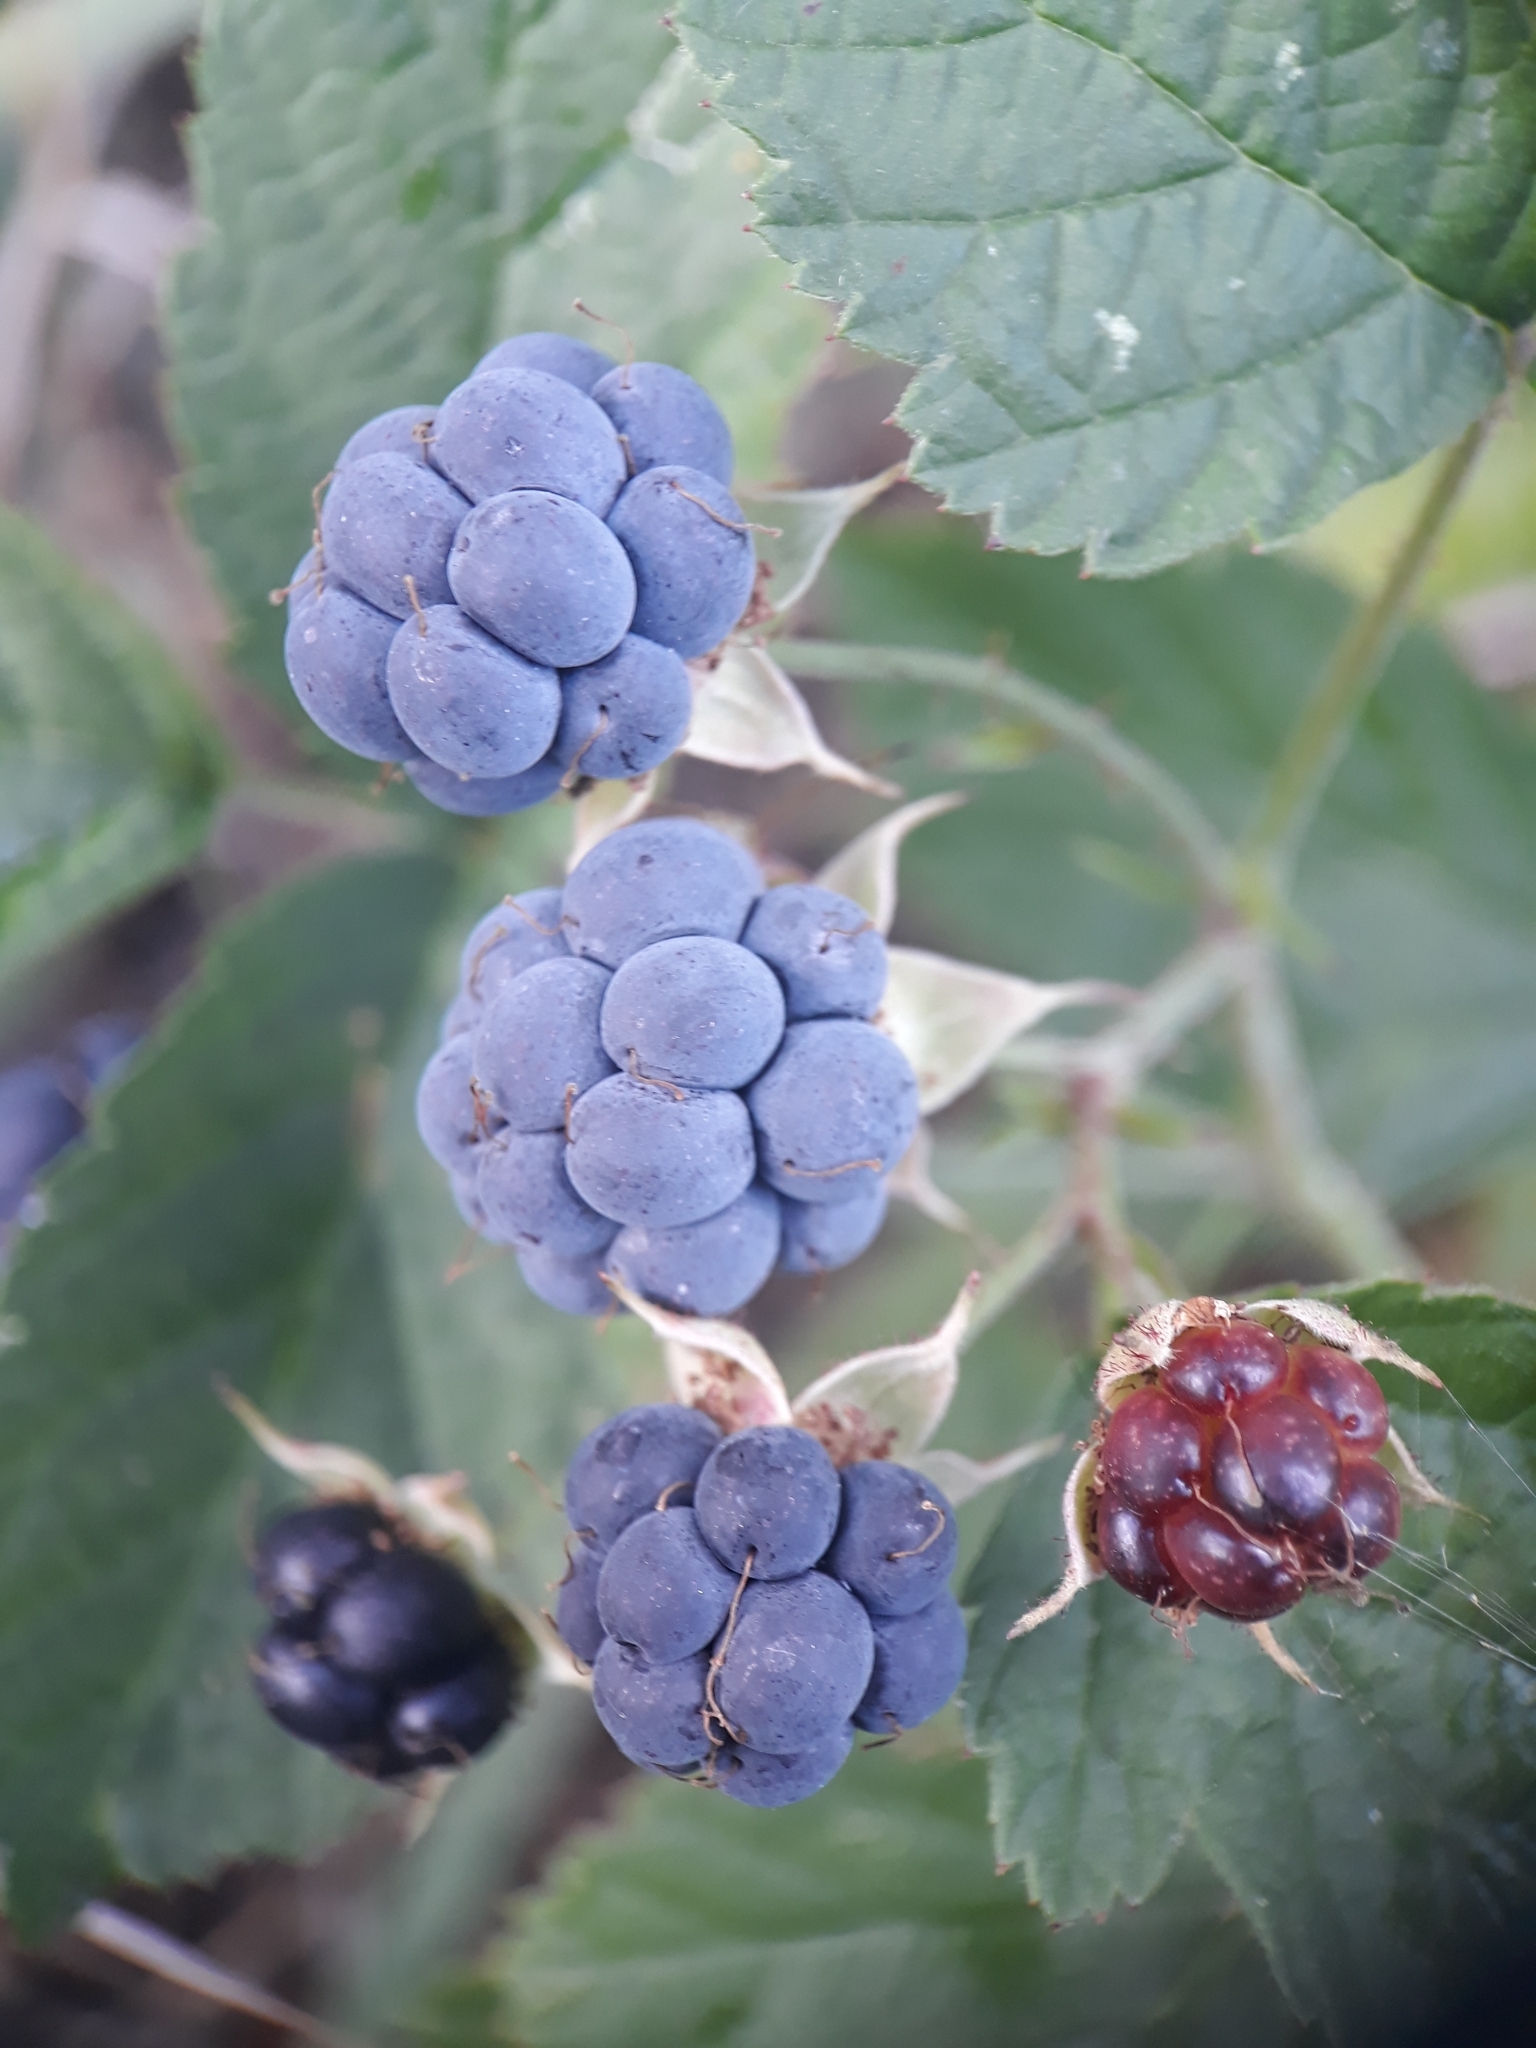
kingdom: Plantae
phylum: Tracheophyta
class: Magnoliopsida
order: Rosales
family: Rosaceae
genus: Rubus
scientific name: Rubus caesius
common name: Dewberry
